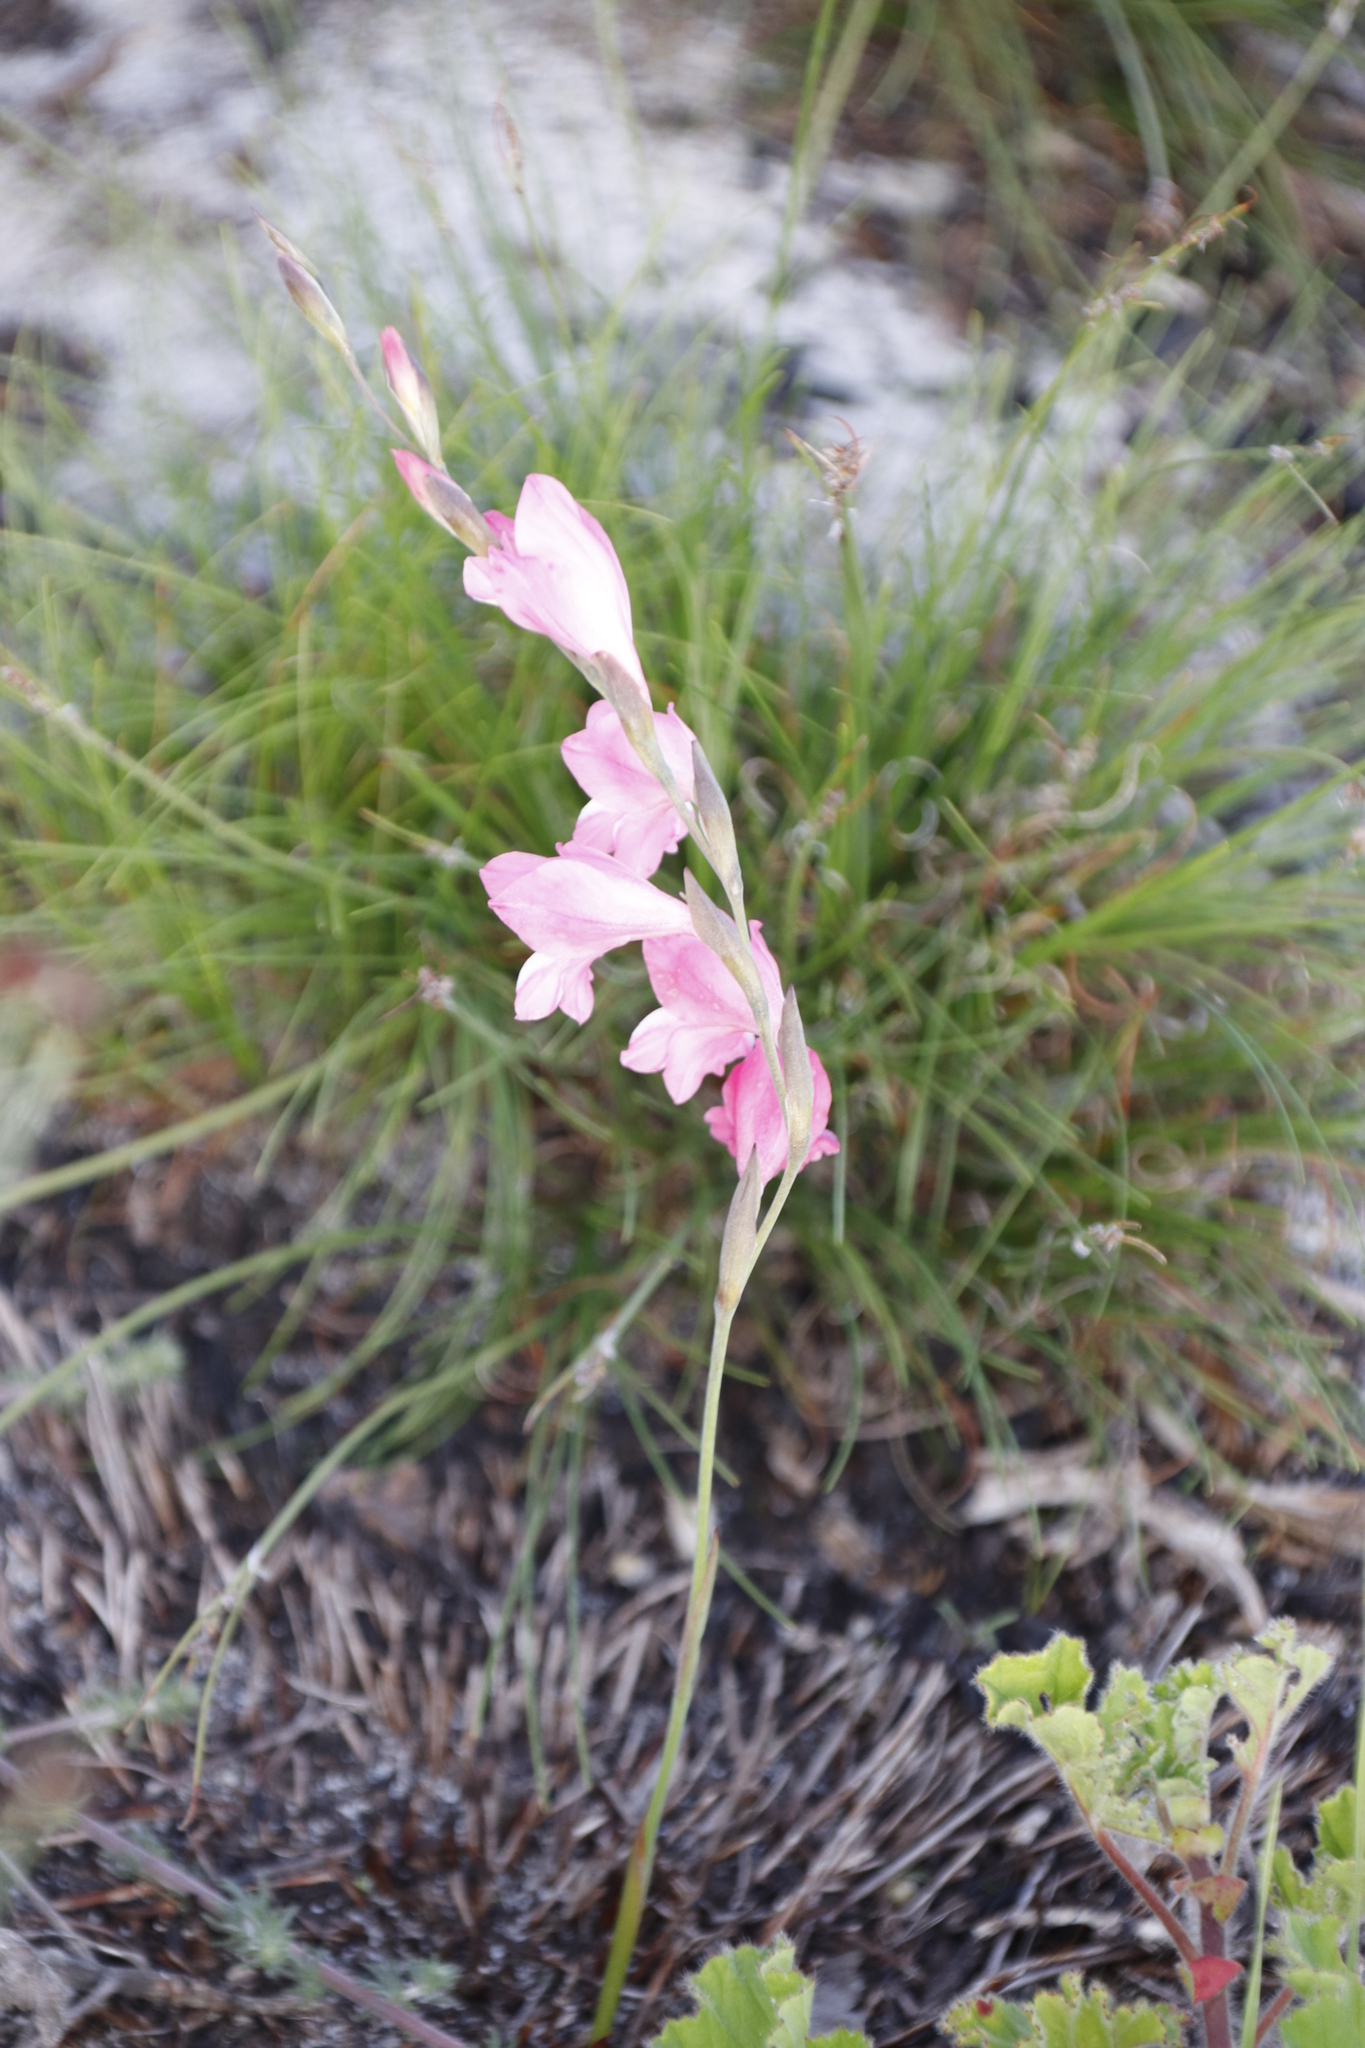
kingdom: Plantae
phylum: Tracheophyta
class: Liliopsida
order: Asparagales
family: Iridaceae
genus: Gladiolus
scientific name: Gladiolus brevifolius
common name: March pypie
